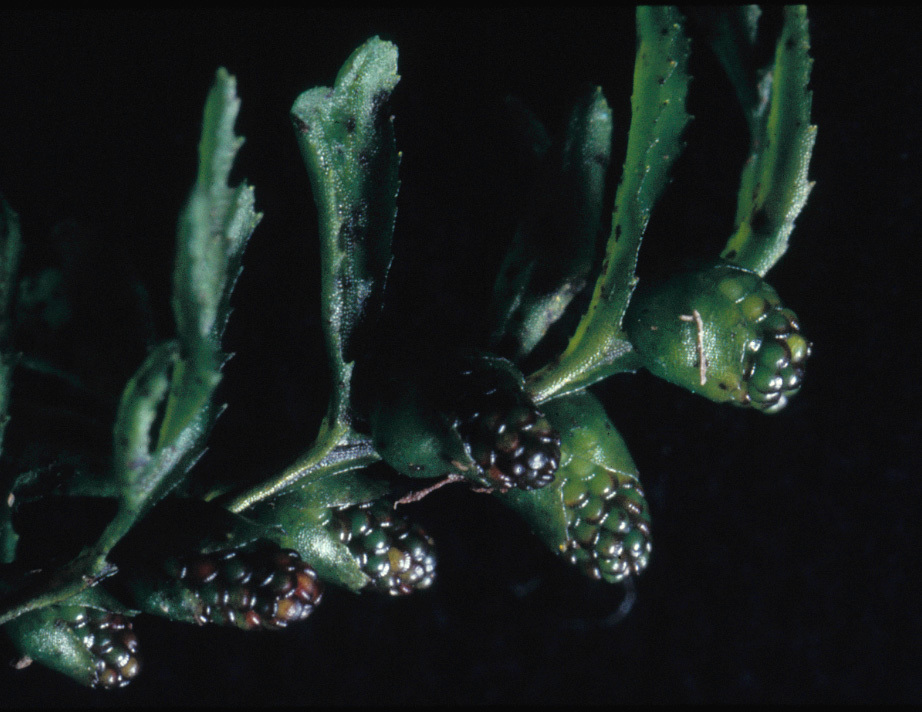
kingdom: Plantae
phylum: Tracheophyta
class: Polypodiopsida
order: Hymenophyllales
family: Hymenophyllaceae
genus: Hymenophyllum
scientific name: Hymenophyllum cupressiforme
